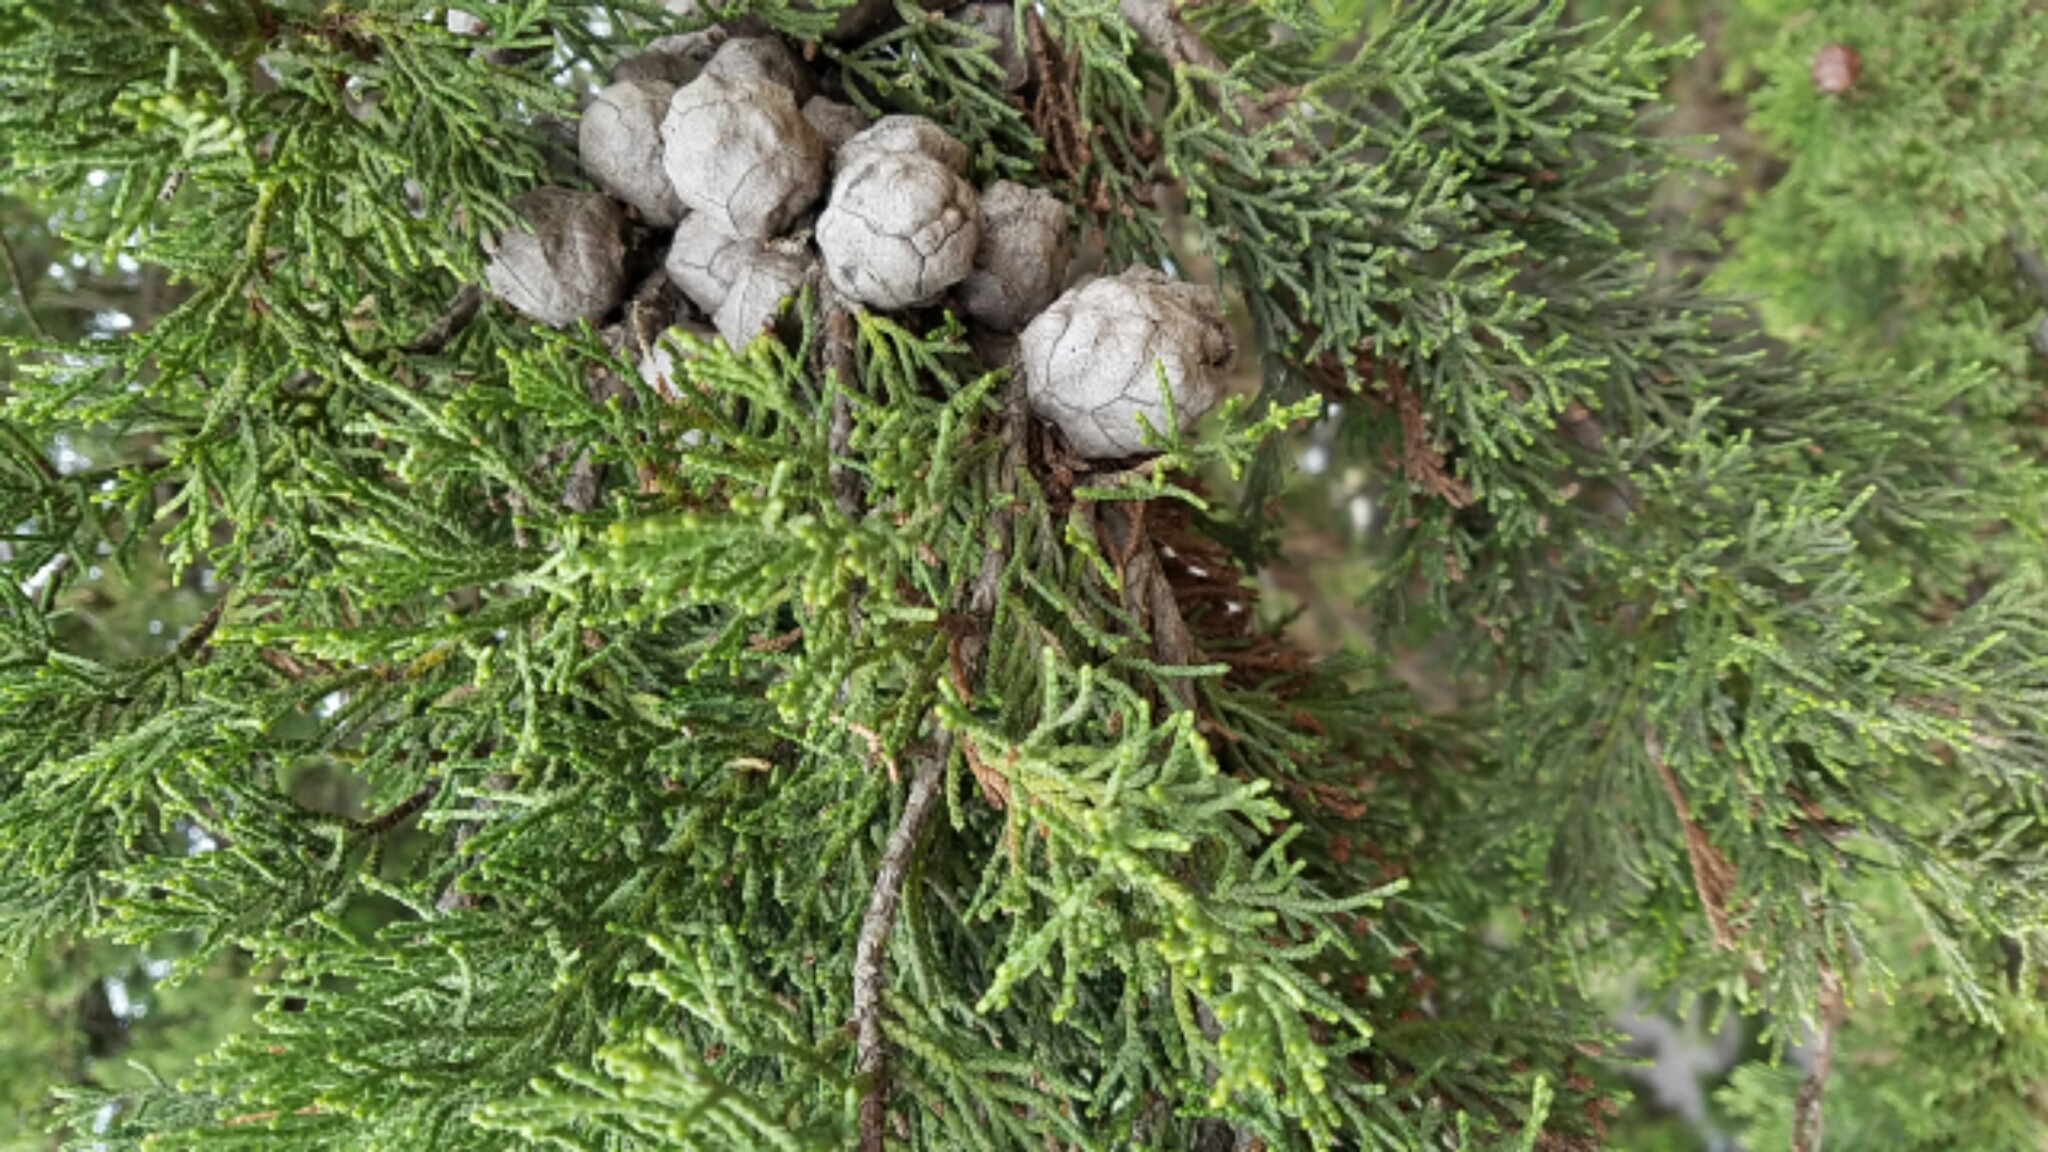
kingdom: Plantae
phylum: Tracheophyta
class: Pinopsida
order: Pinales
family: Cupressaceae
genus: Cupressus
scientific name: Cupressus macrocarpa
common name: Monterey cypress
